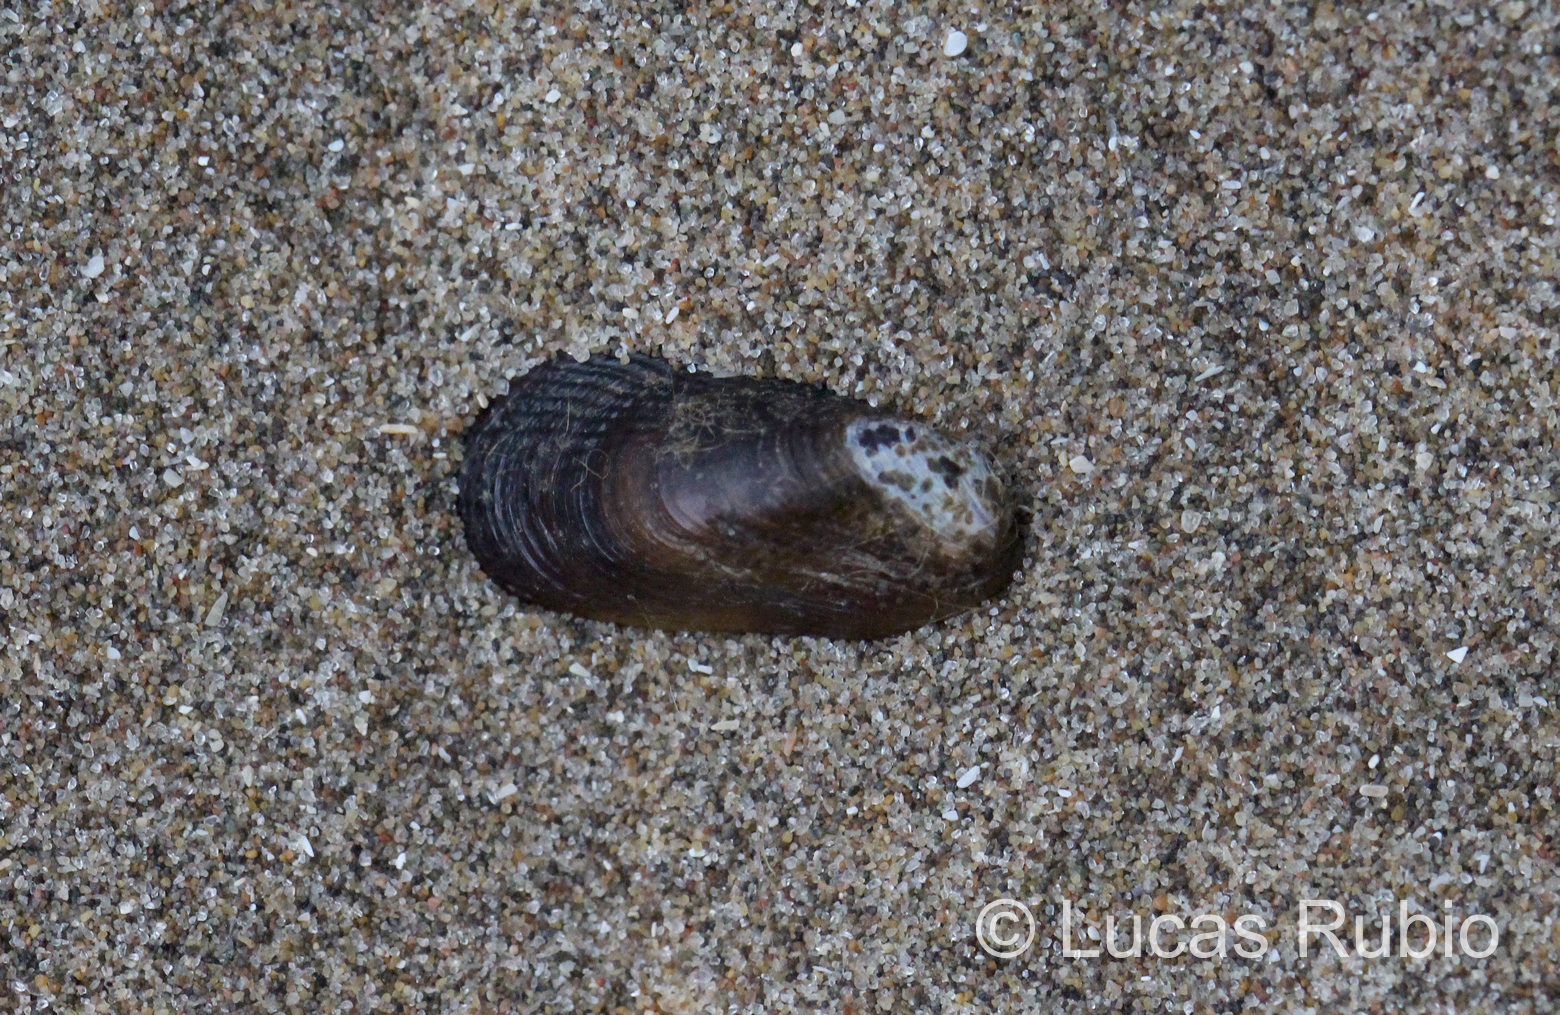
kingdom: Animalia
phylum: Mollusca
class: Bivalvia
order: Mytilida
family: Mytilidae
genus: Brachidontes
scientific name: Brachidontes rodriguezii
